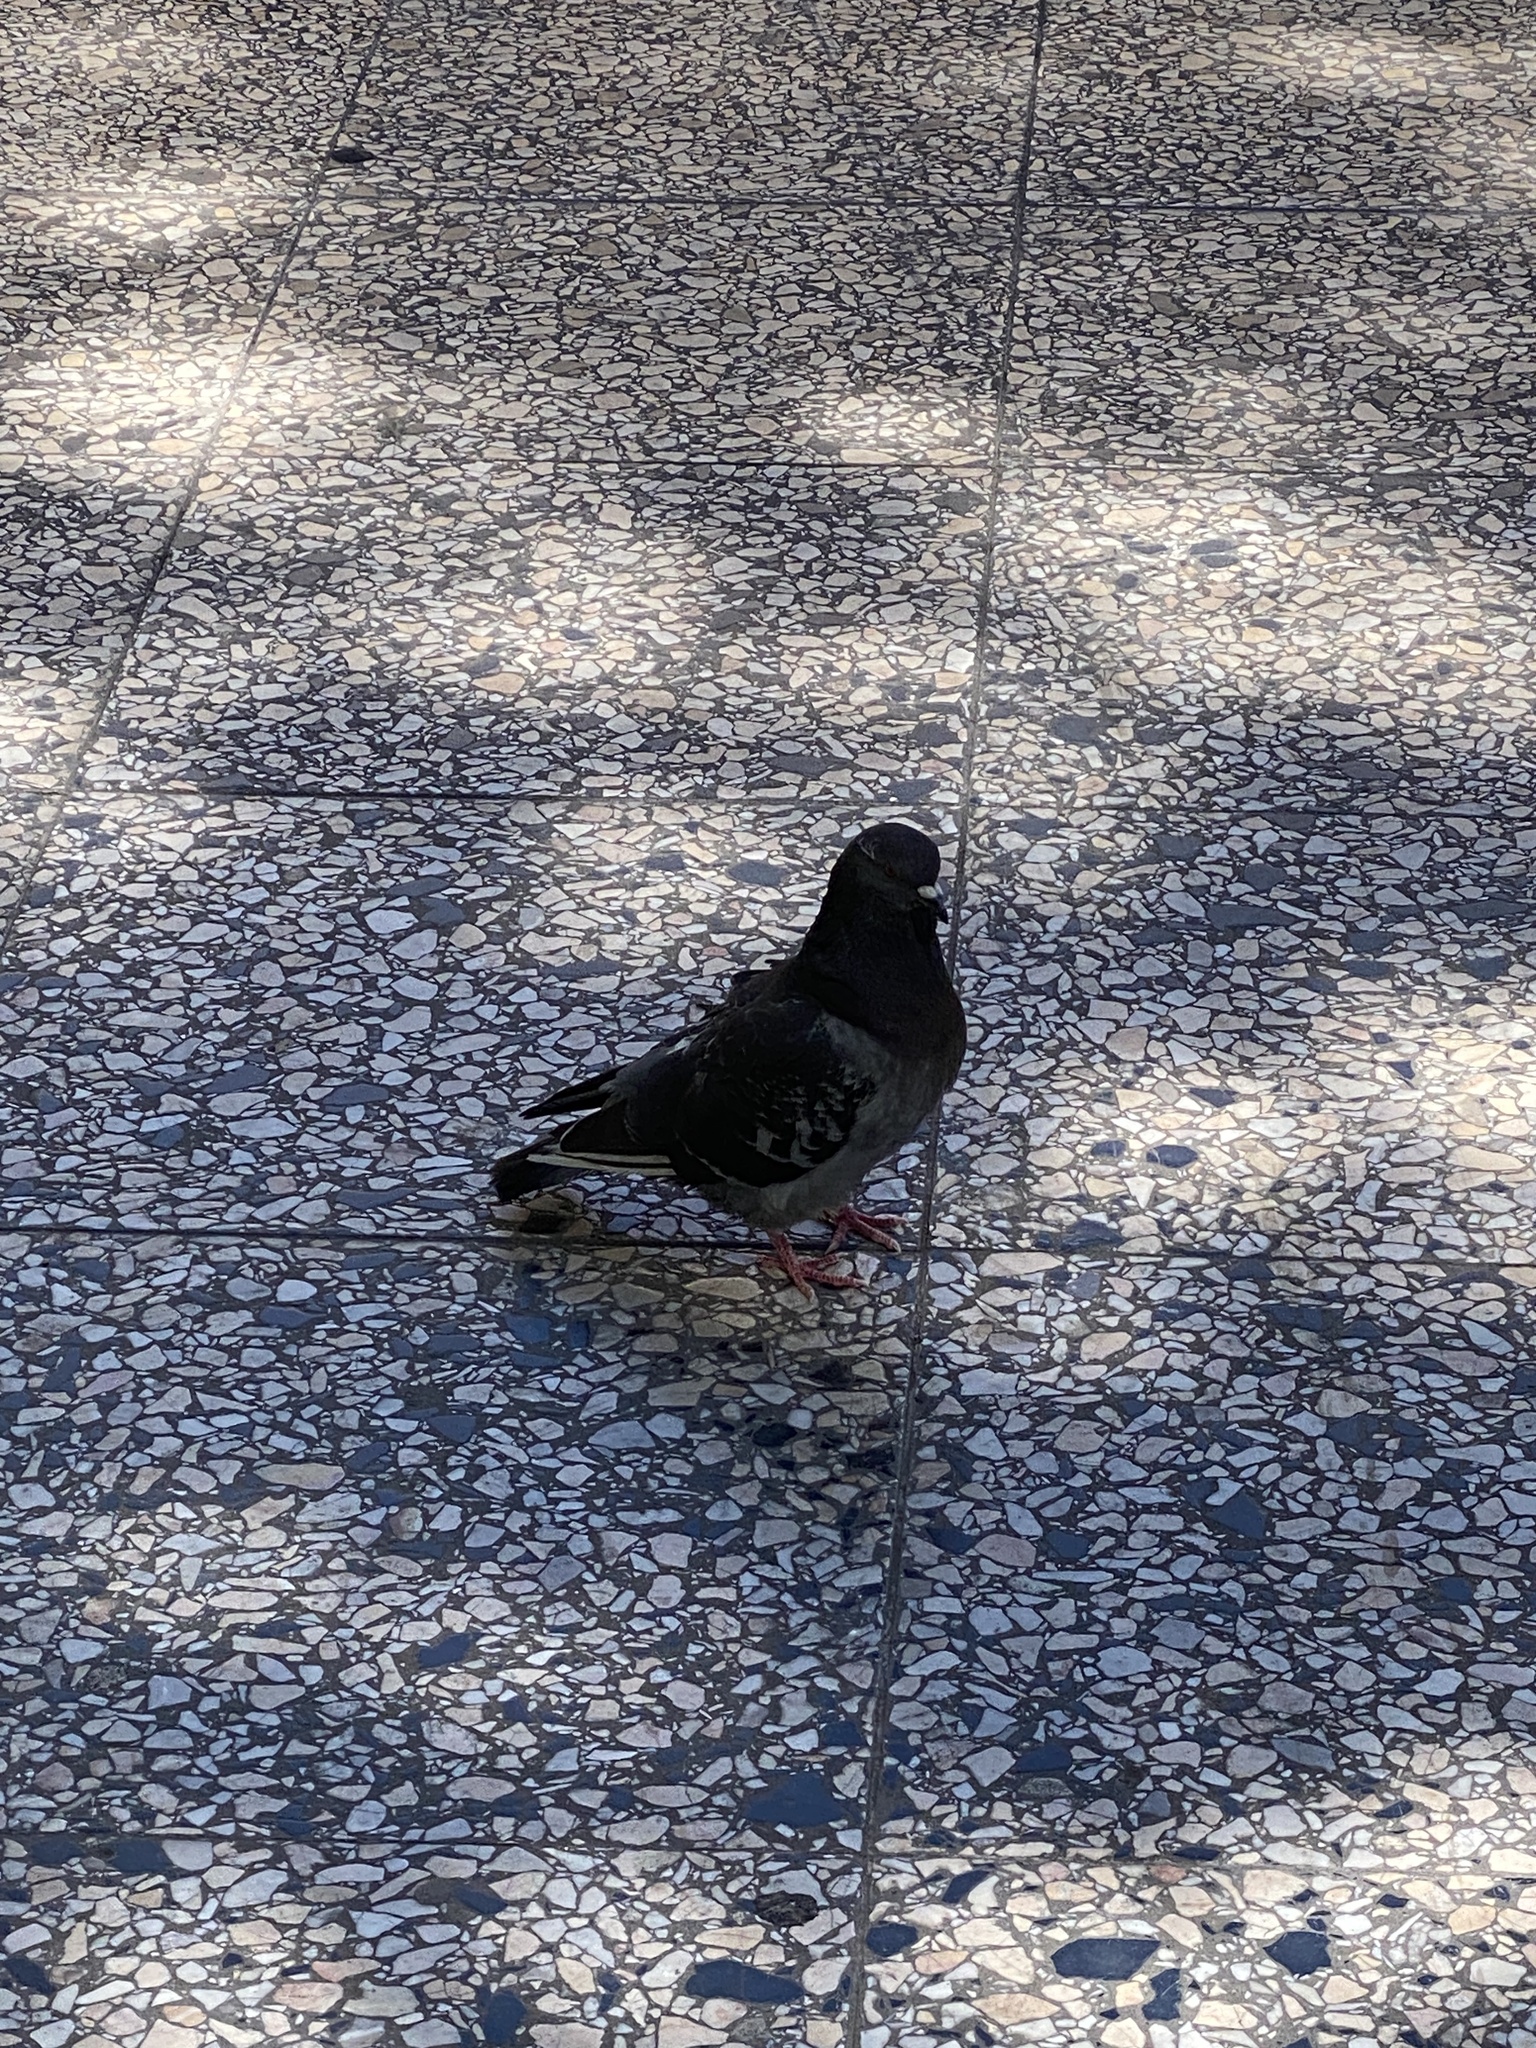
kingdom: Animalia
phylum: Chordata
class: Aves
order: Columbiformes
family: Columbidae
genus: Columba
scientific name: Columba livia
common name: Rock pigeon
